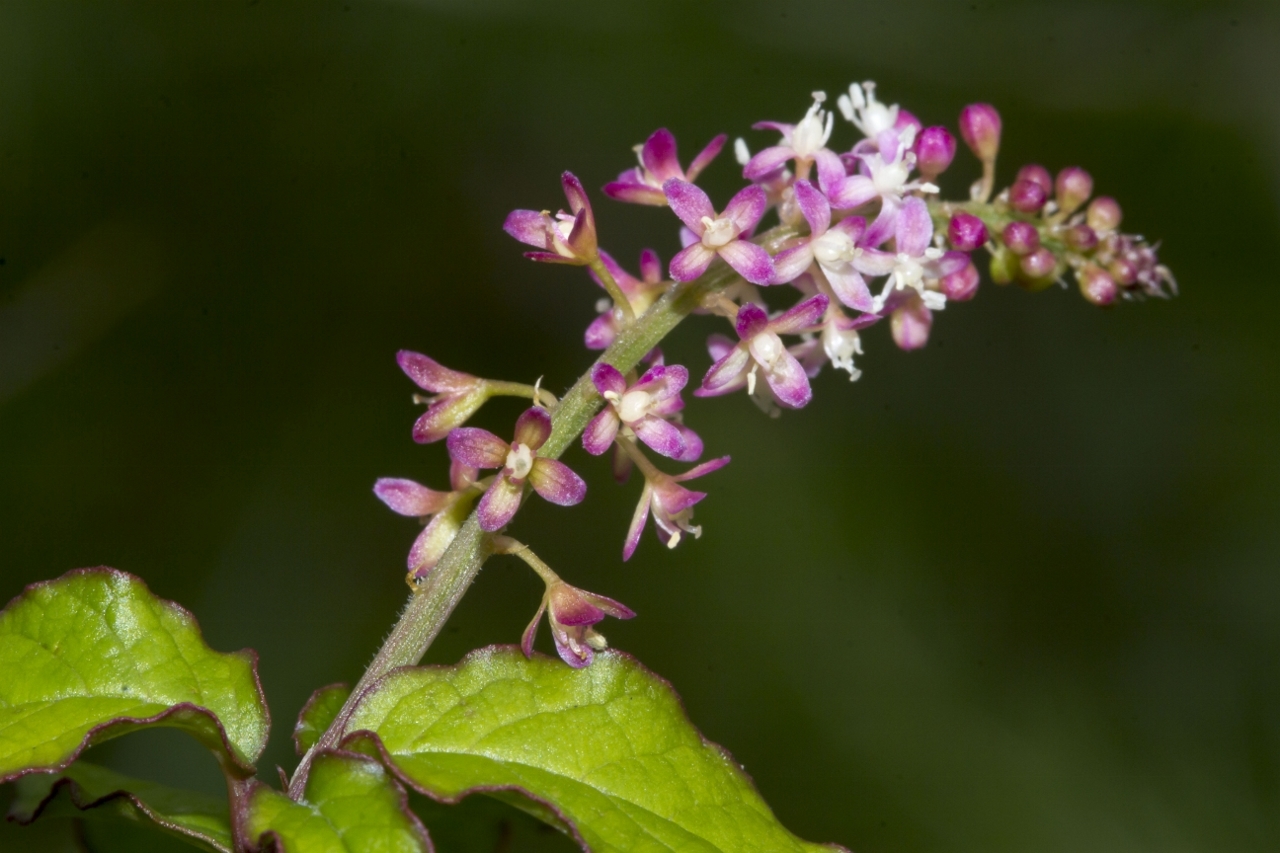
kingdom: Plantae
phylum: Tracheophyta
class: Magnoliopsida
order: Caryophyllales
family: Phytolaccaceae
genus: Rivina
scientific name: Rivina humilis
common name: Rougeplant
